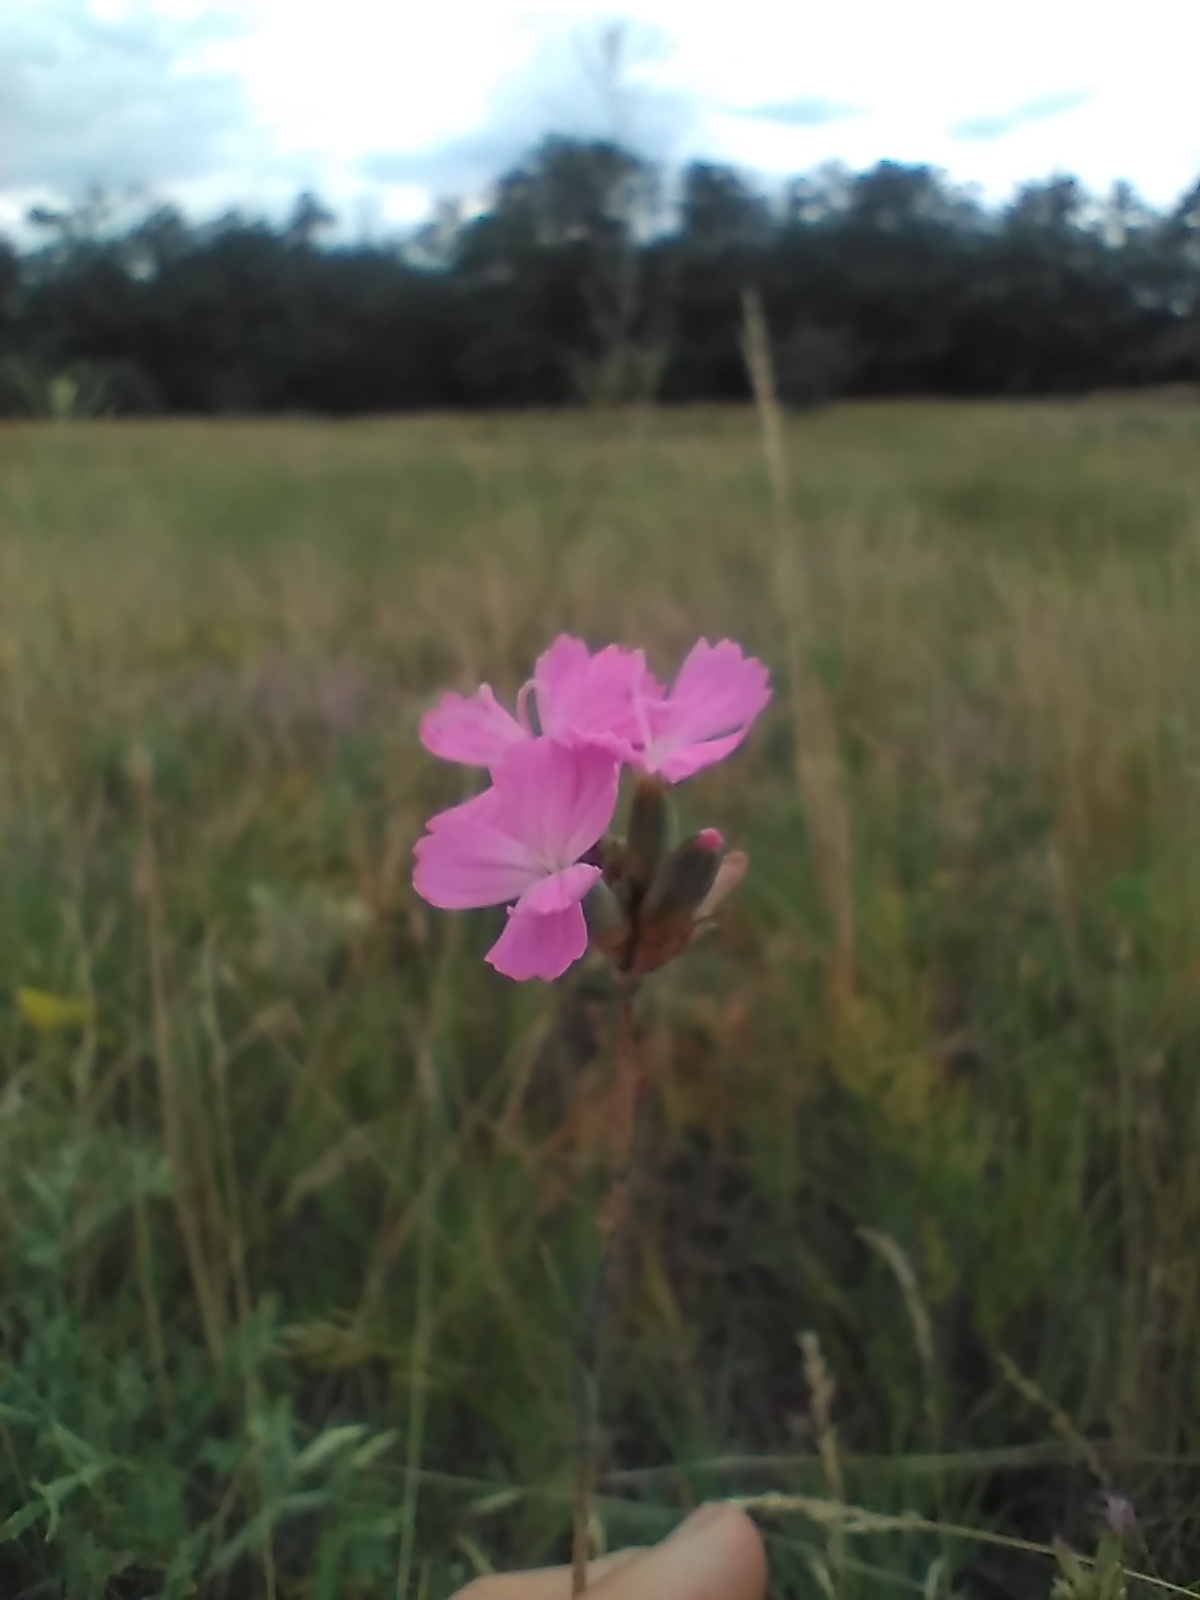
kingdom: Plantae
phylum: Tracheophyta
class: Magnoliopsida
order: Caryophyllales
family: Caryophyllaceae
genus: Dianthus
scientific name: Dianthus polymorphus
